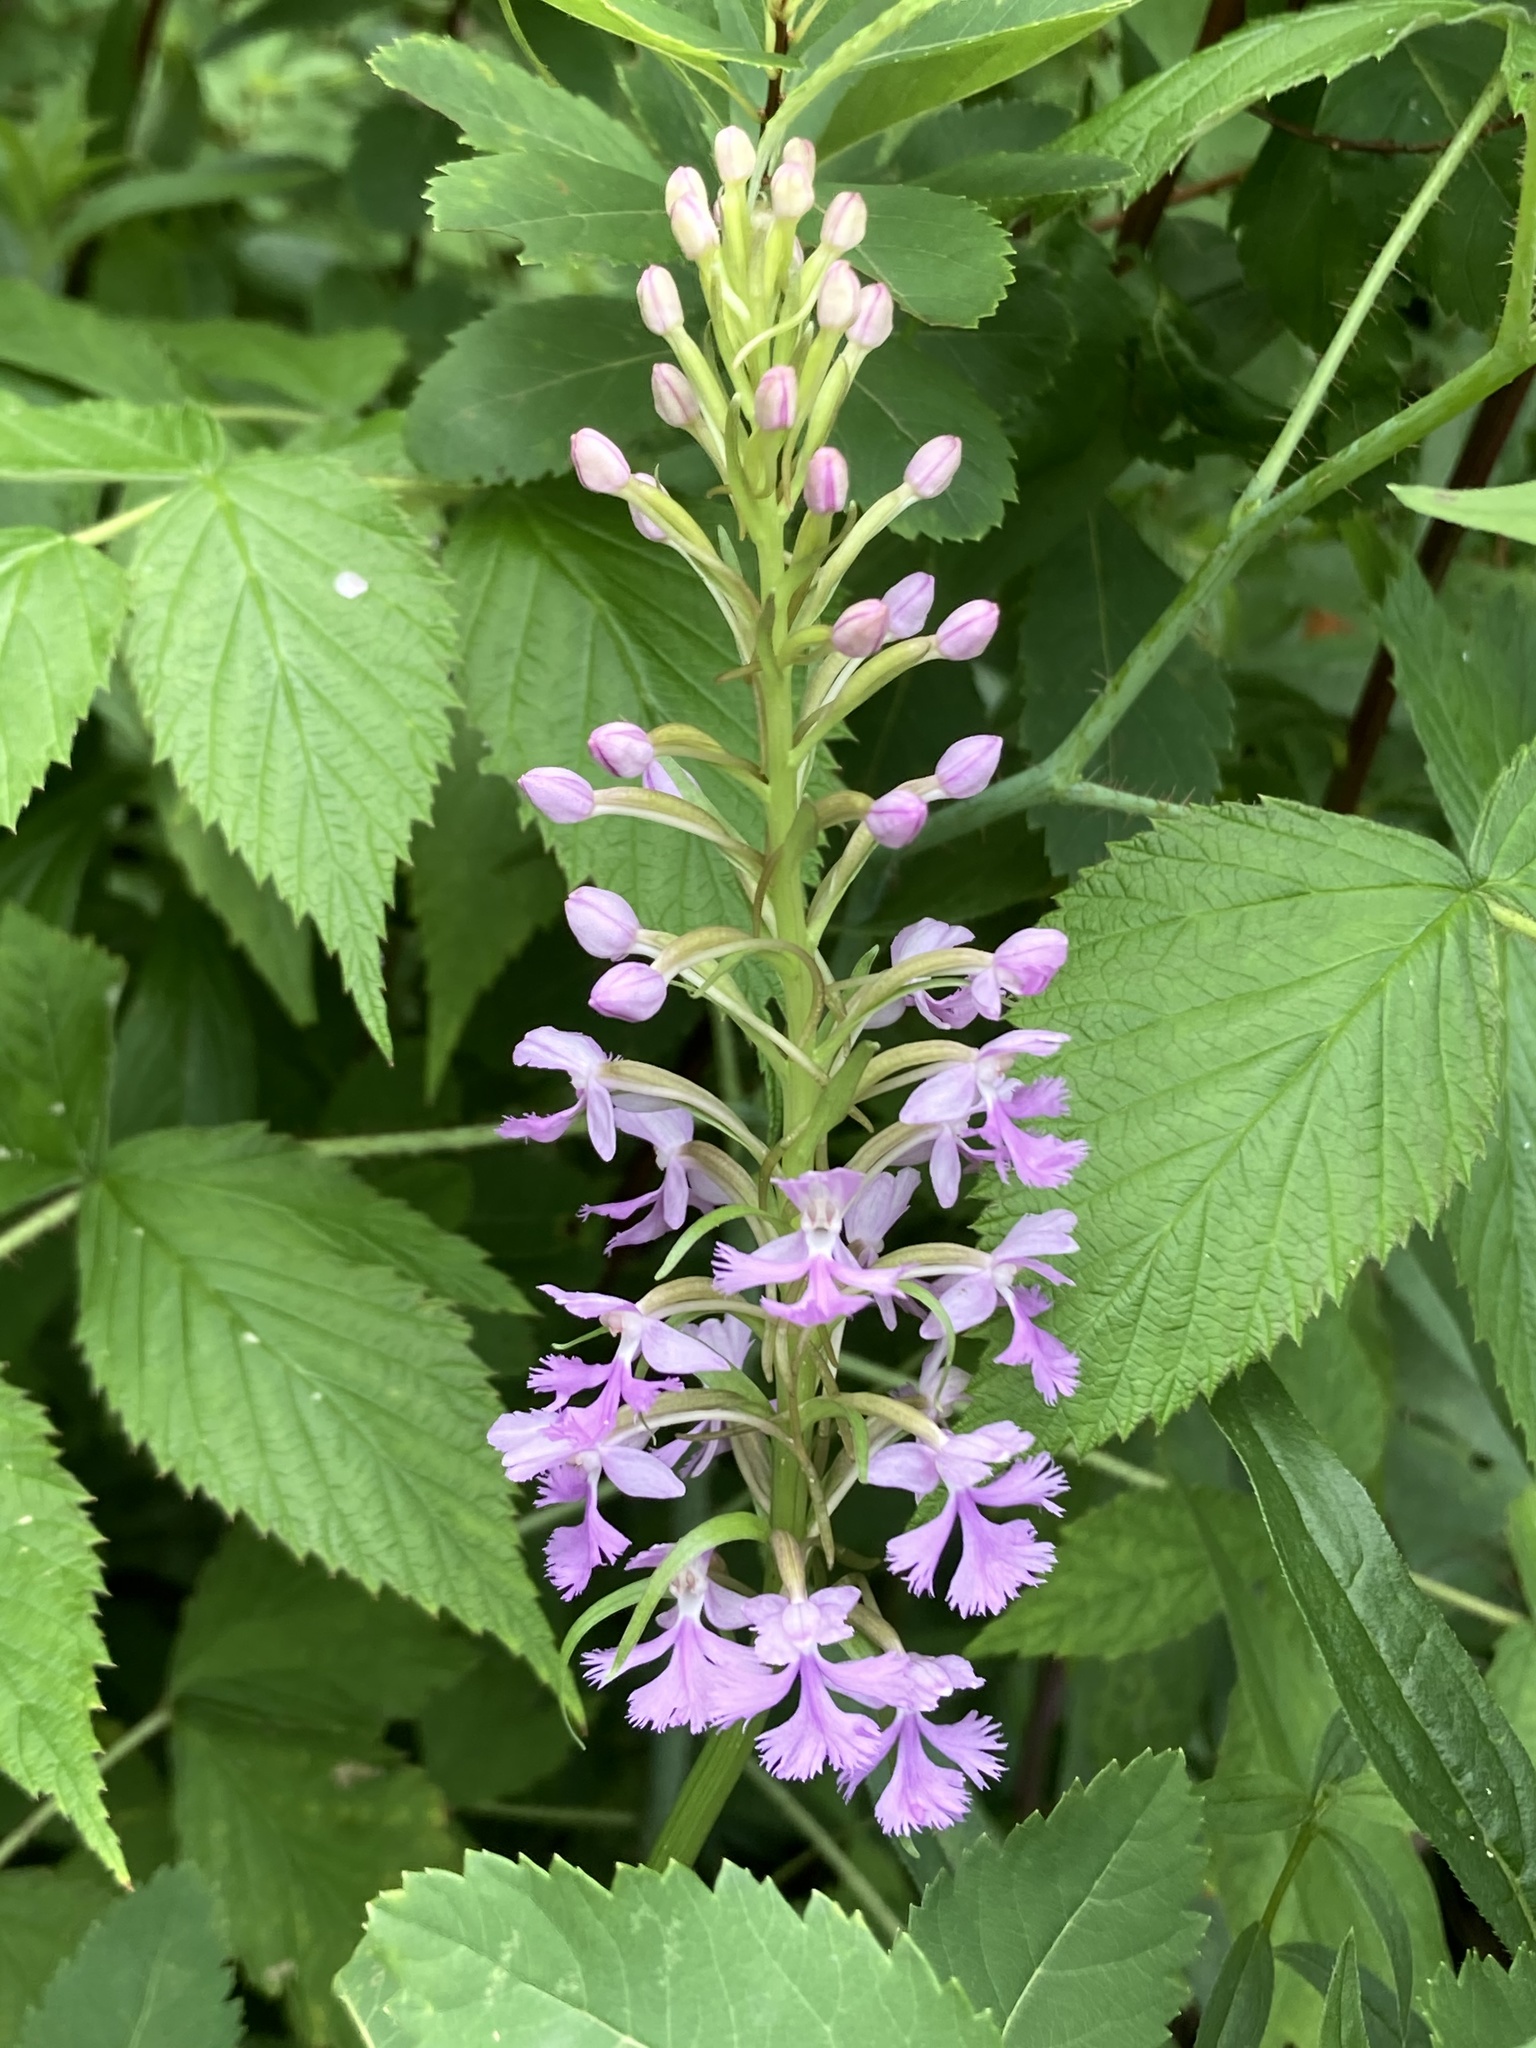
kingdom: Plantae
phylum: Tracheophyta
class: Liliopsida
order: Asparagales
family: Orchidaceae
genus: Platanthera
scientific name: Platanthera psycodes
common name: Lesser purple fringed orchid
